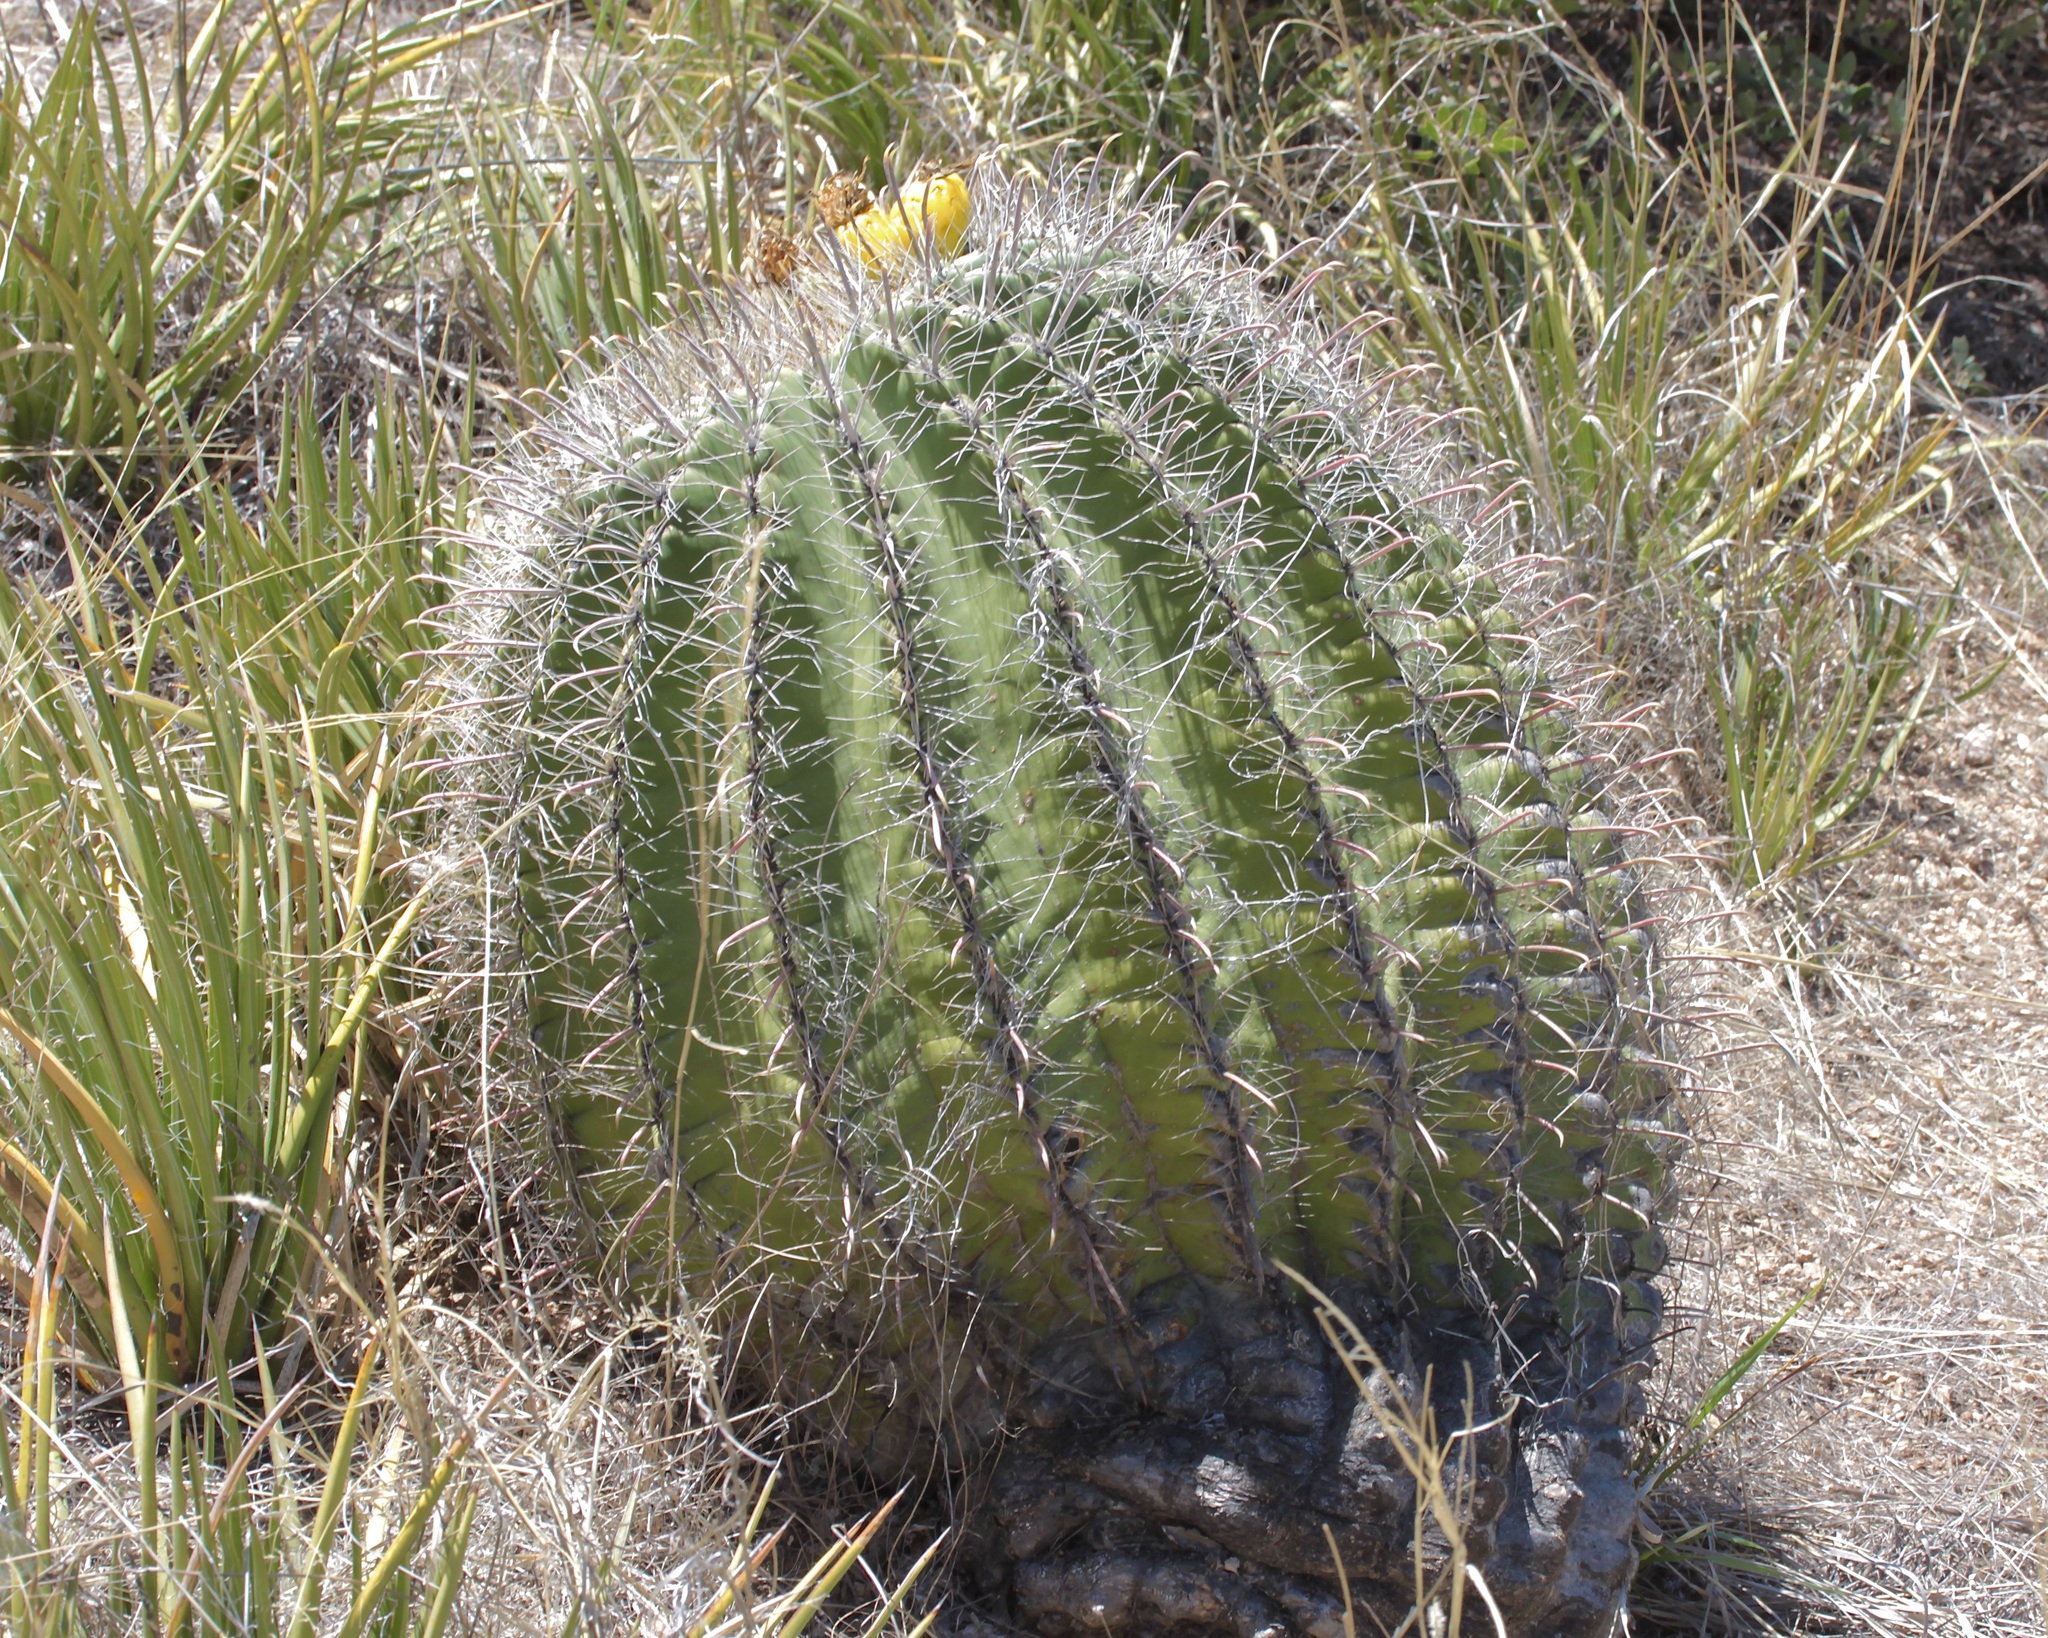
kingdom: Plantae
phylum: Tracheophyta
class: Magnoliopsida
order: Caryophyllales
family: Cactaceae
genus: Ferocactus
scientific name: Ferocactus wislizeni
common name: Candy barrel cactus
